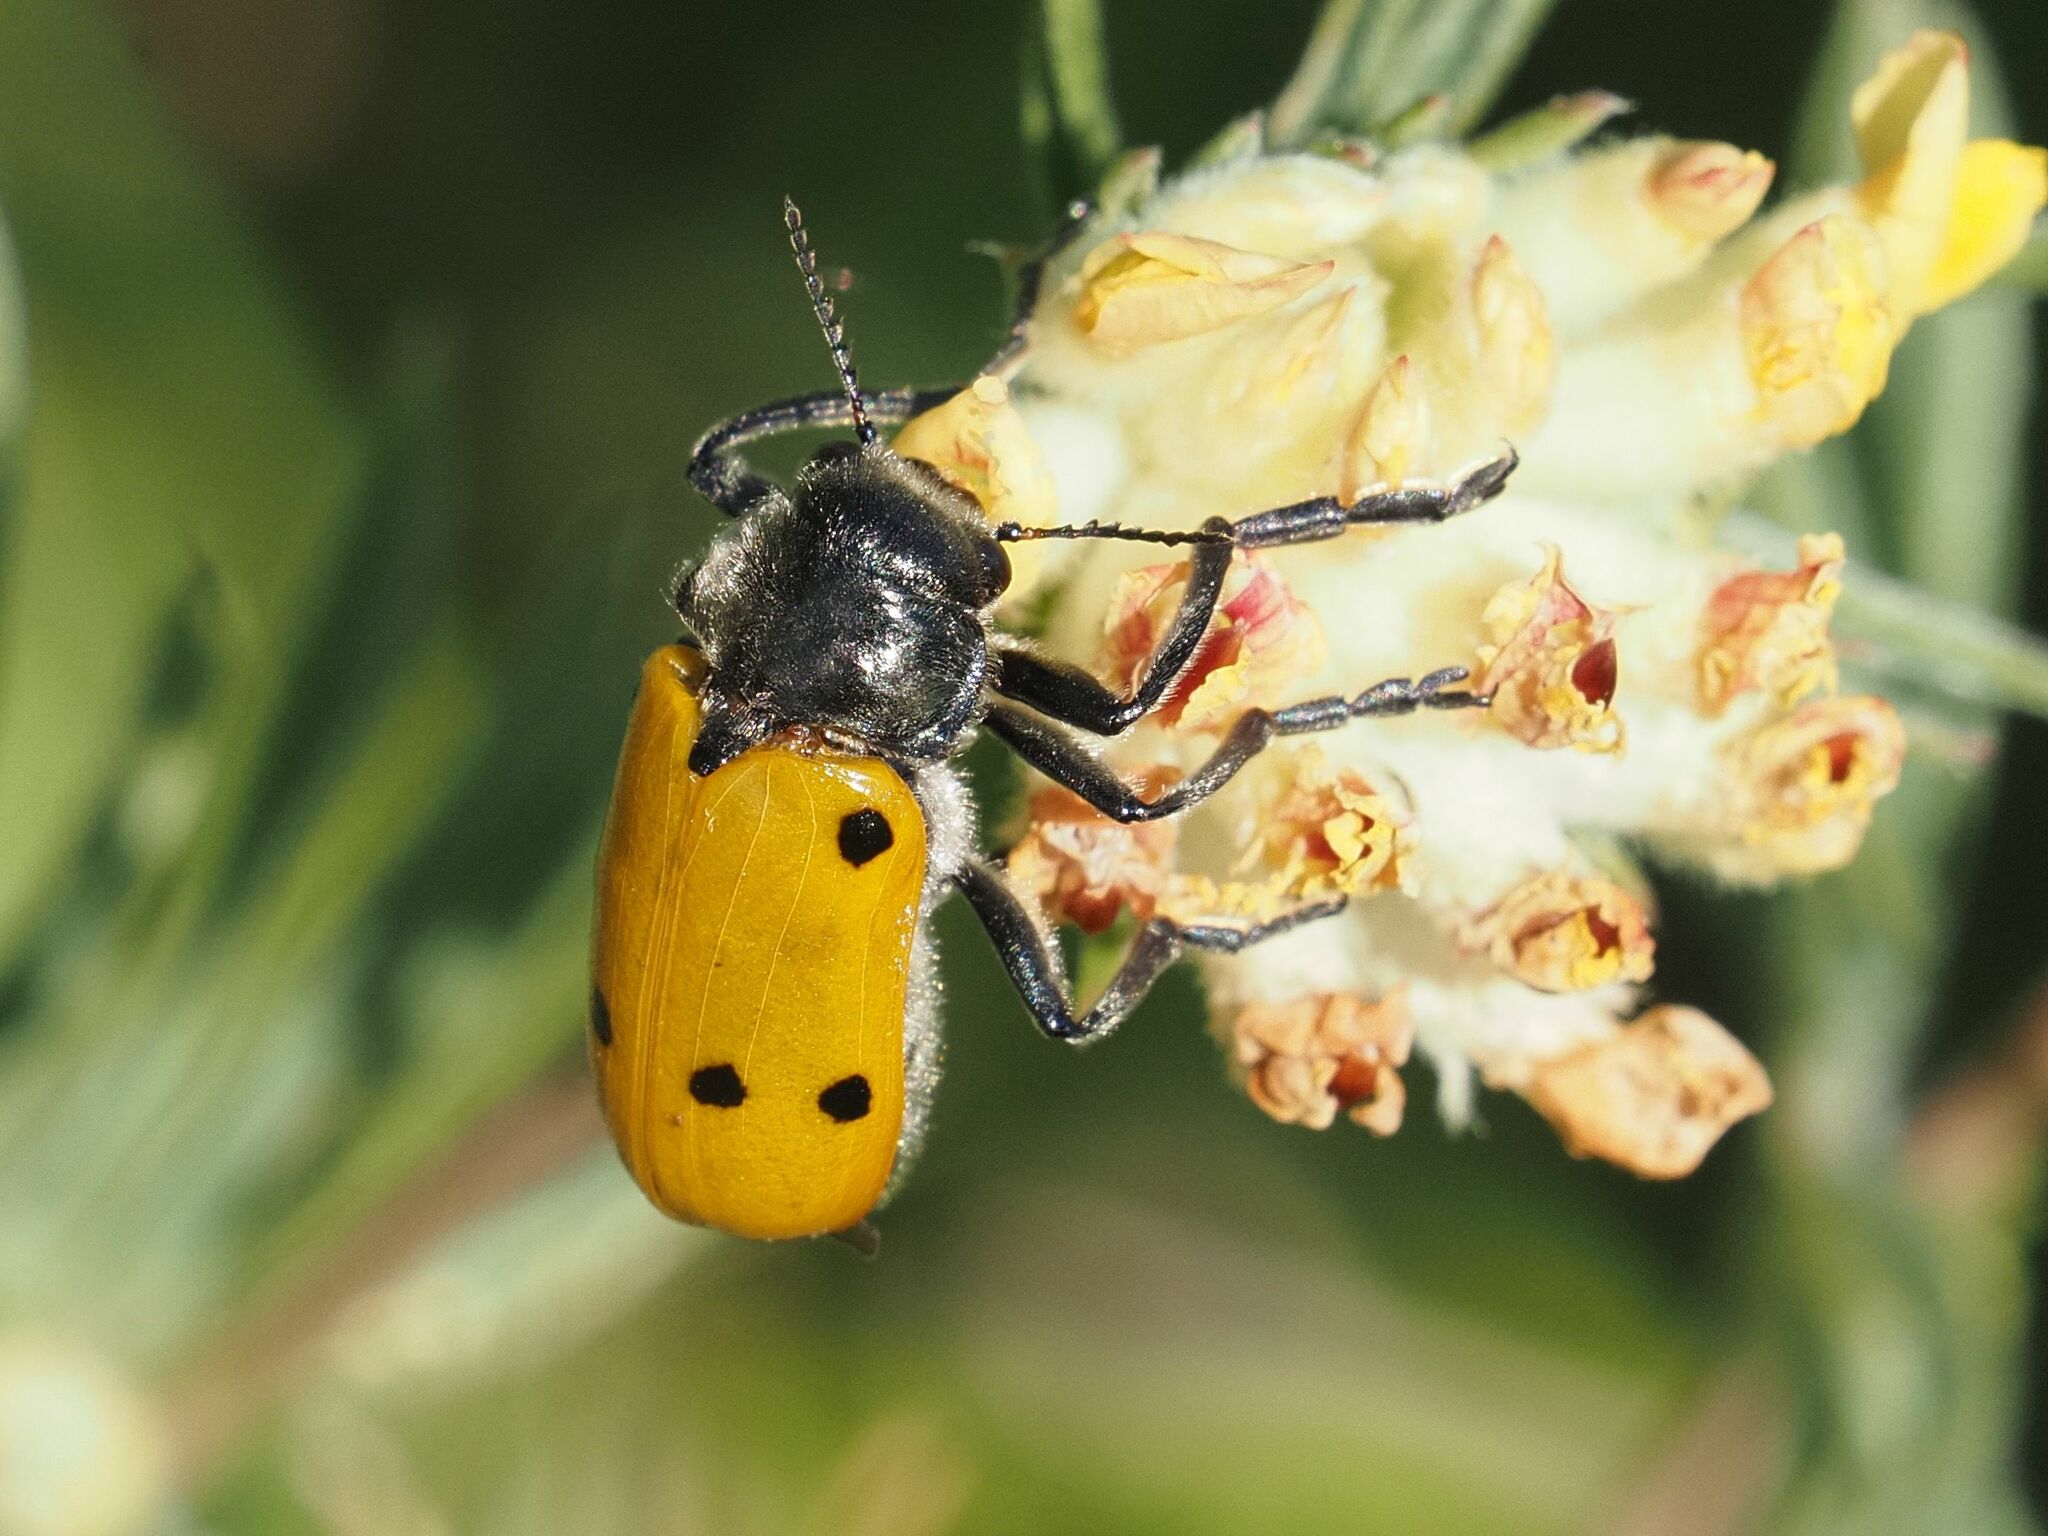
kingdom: Animalia
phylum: Arthropoda
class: Insecta
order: Coleoptera
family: Chrysomelidae
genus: Lachnaia
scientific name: Lachnaia sexpunctata
